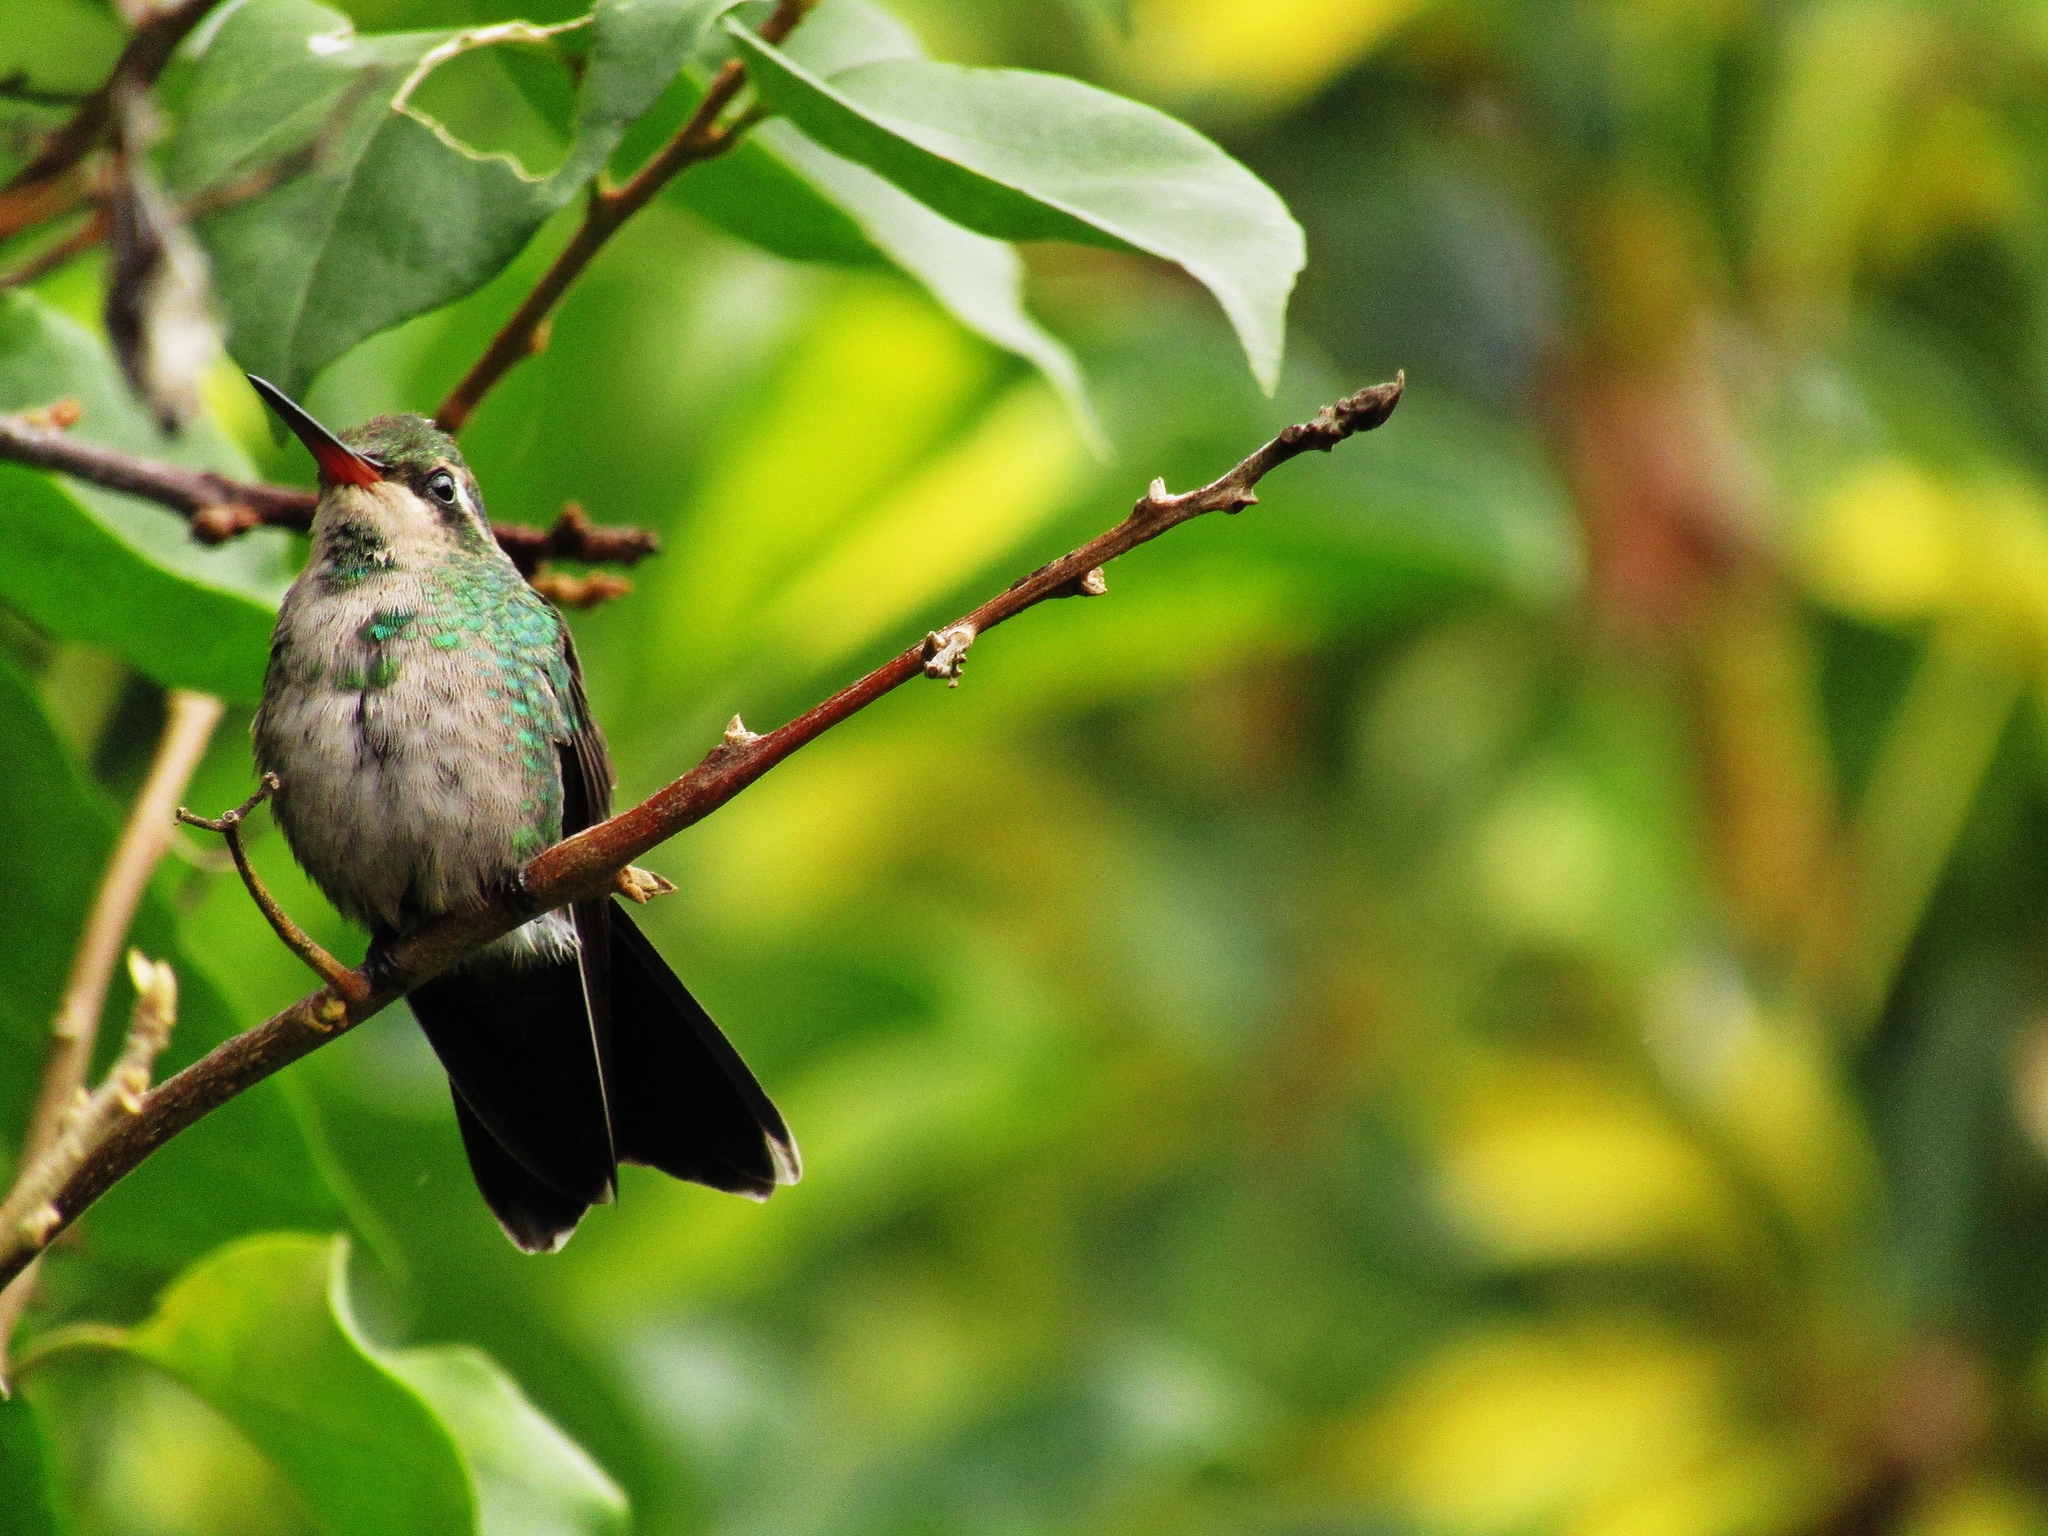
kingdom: Animalia
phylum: Chordata
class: Aves
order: Apodiformes
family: Trochilidae
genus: Chlorostilbon
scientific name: Chlorostilbon lucidus
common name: Glittering-bellied emerald
